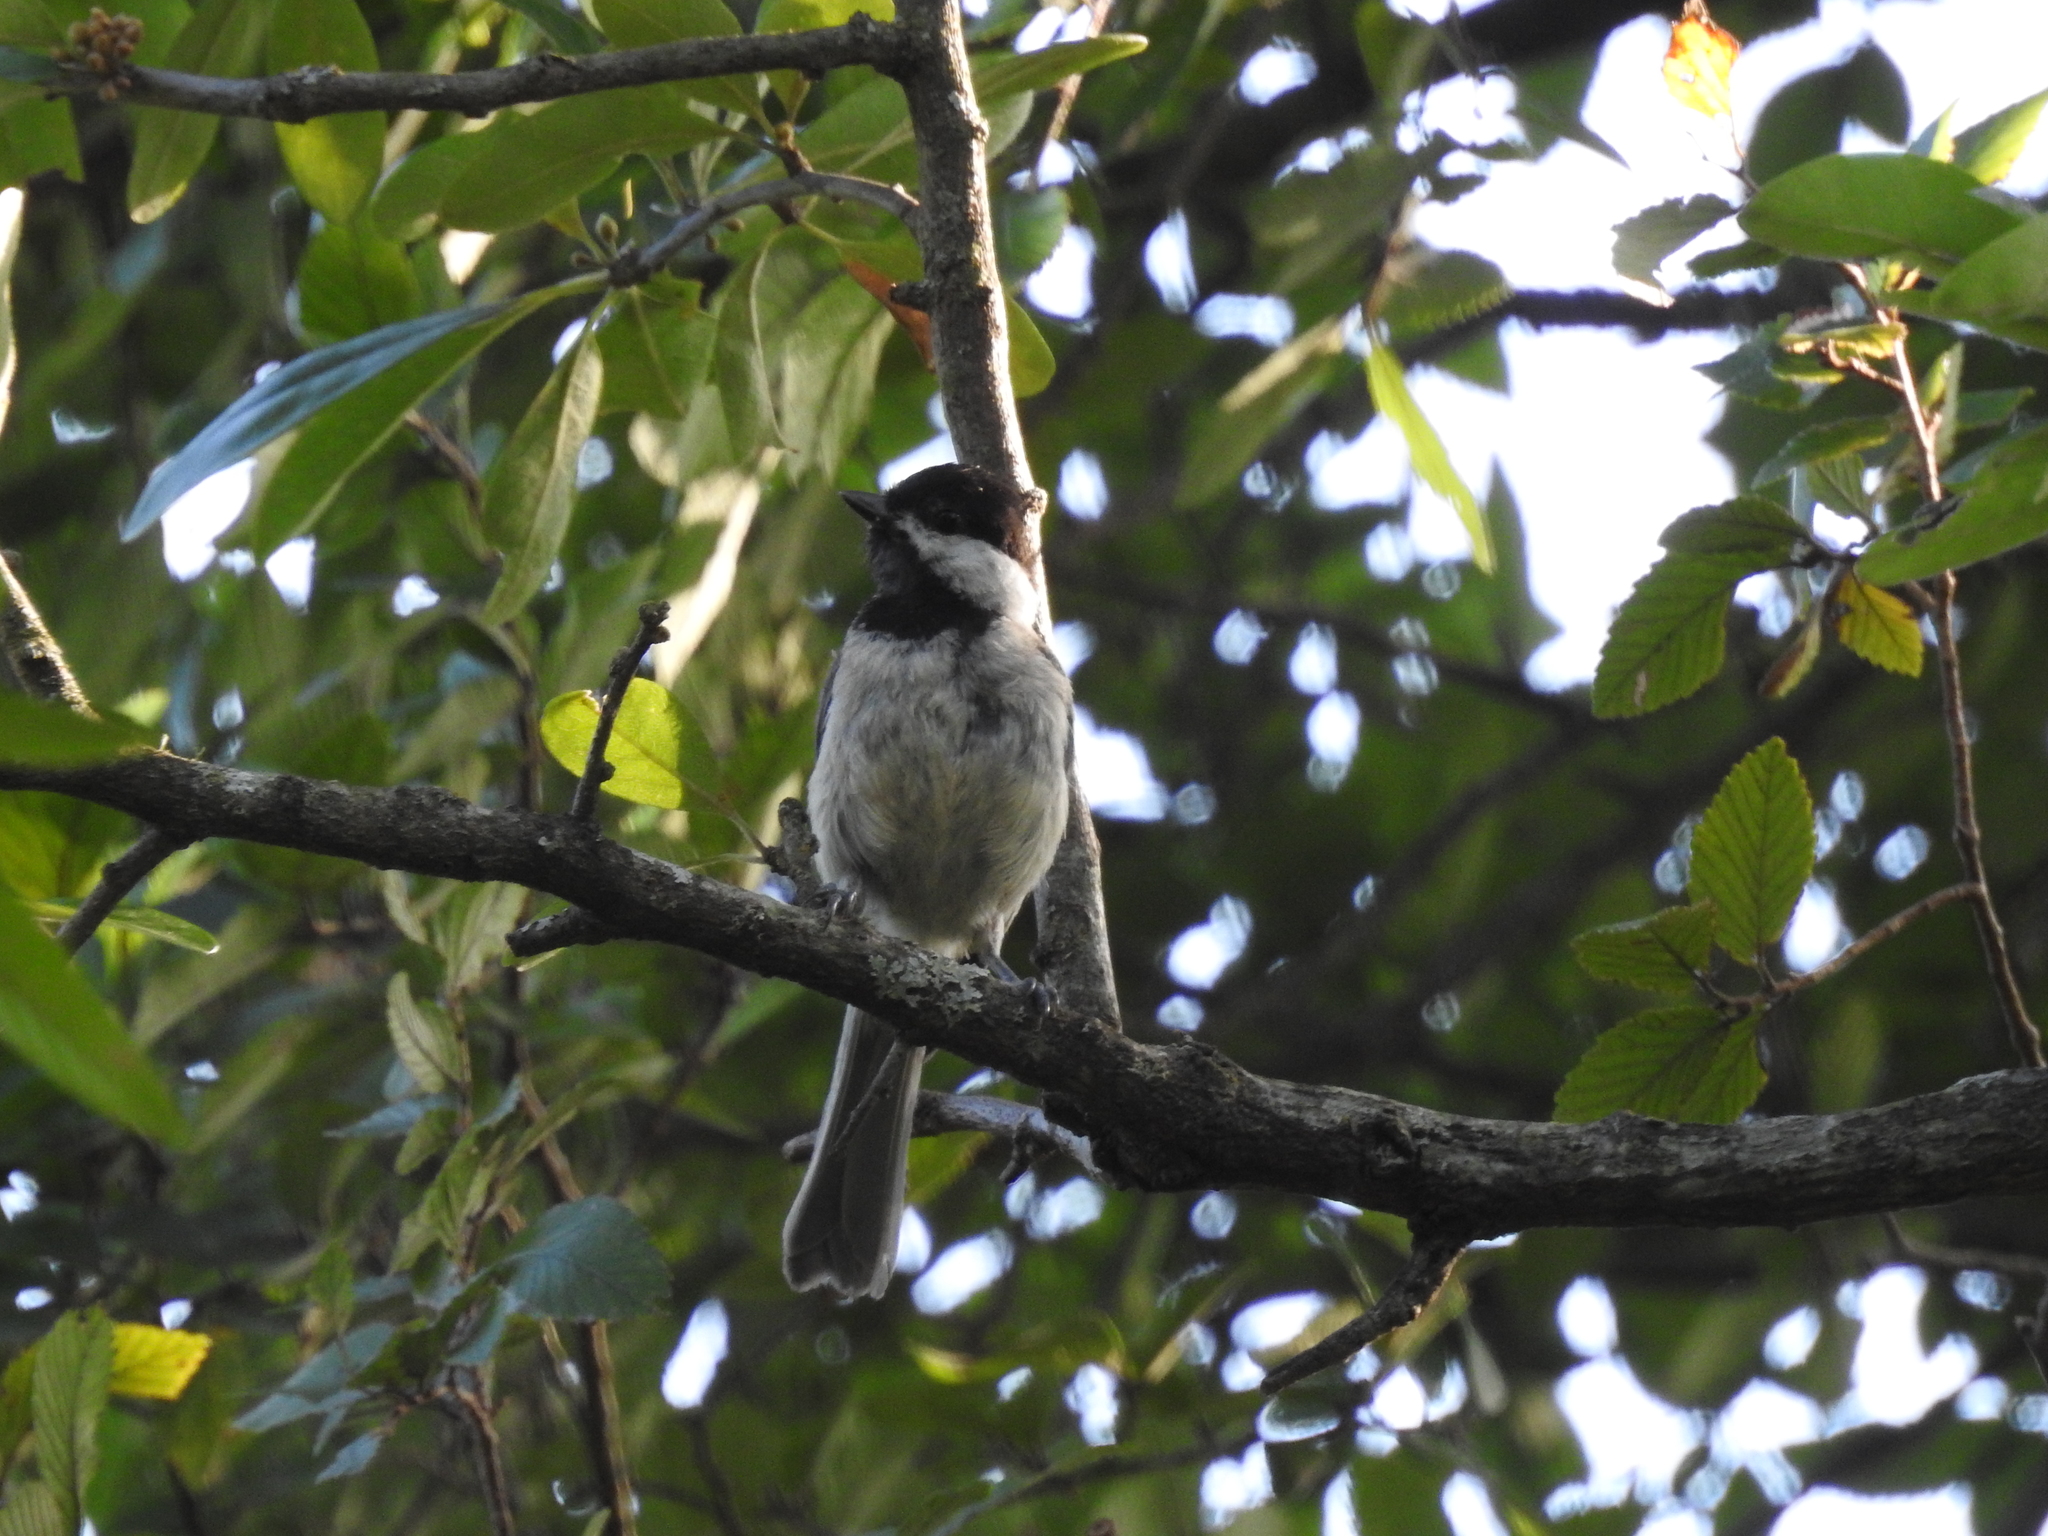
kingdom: Animalia
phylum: Chordata
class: Aves
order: Passeriformes
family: Paridae
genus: Poecile
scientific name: Poecile carolinensis
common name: Carolina chickadee
